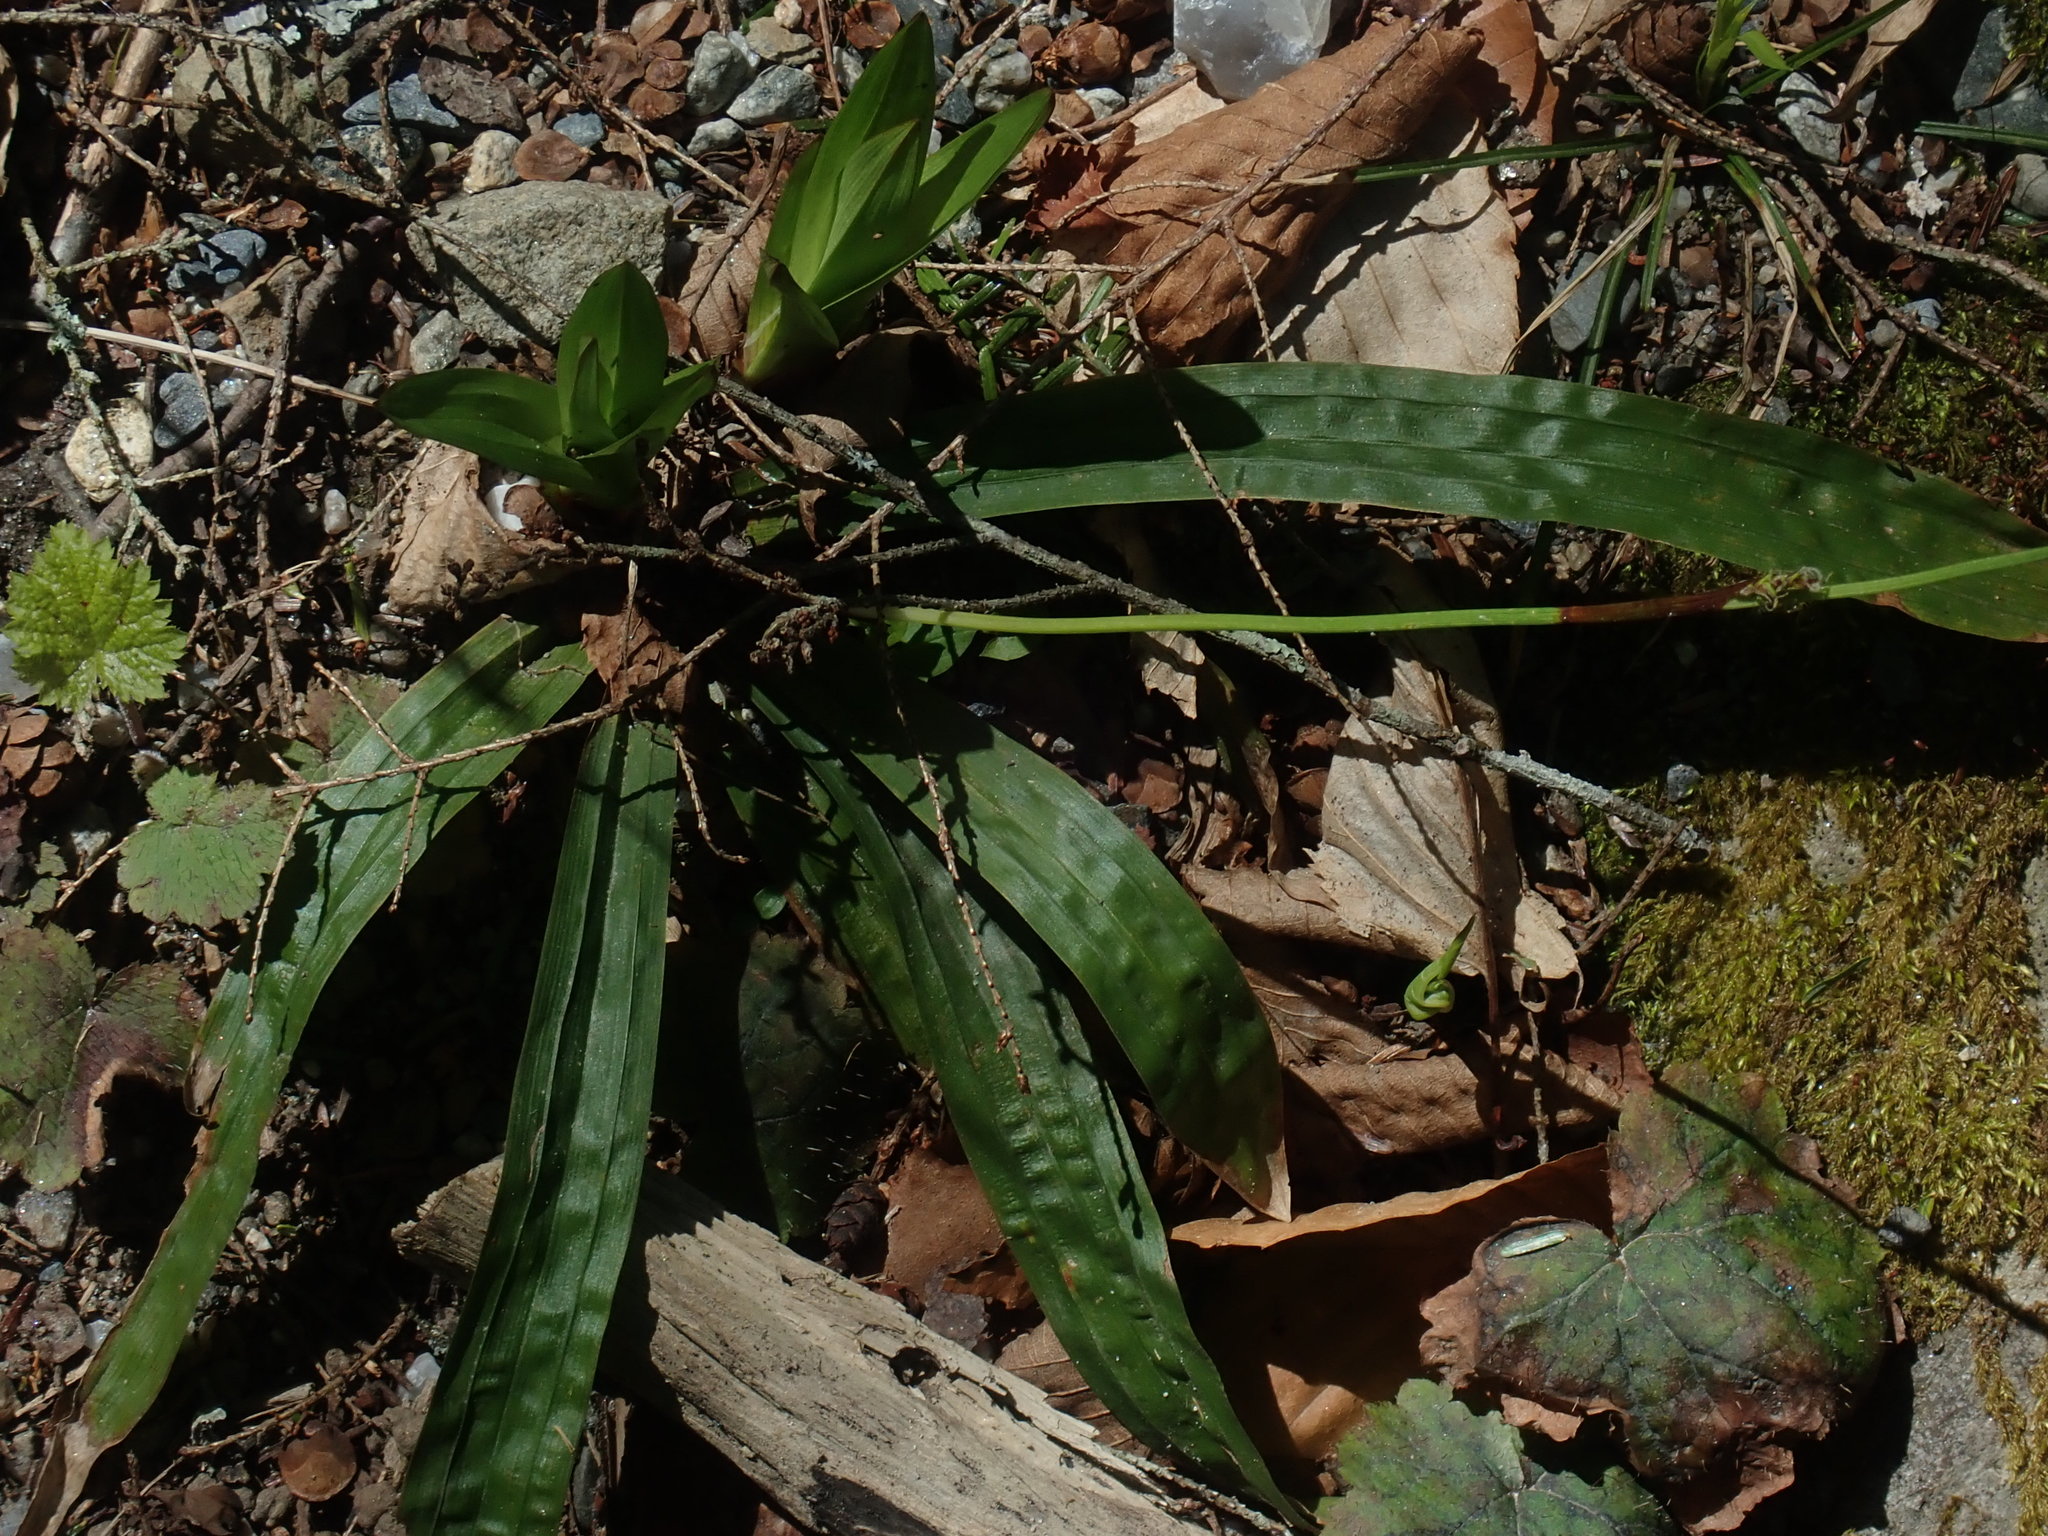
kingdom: Plantae
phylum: Tracheophyta
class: Liliopsida
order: Poales
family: Cyperaceae
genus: Carex
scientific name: Carex plantaginea
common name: Plantain-leaved sedge
